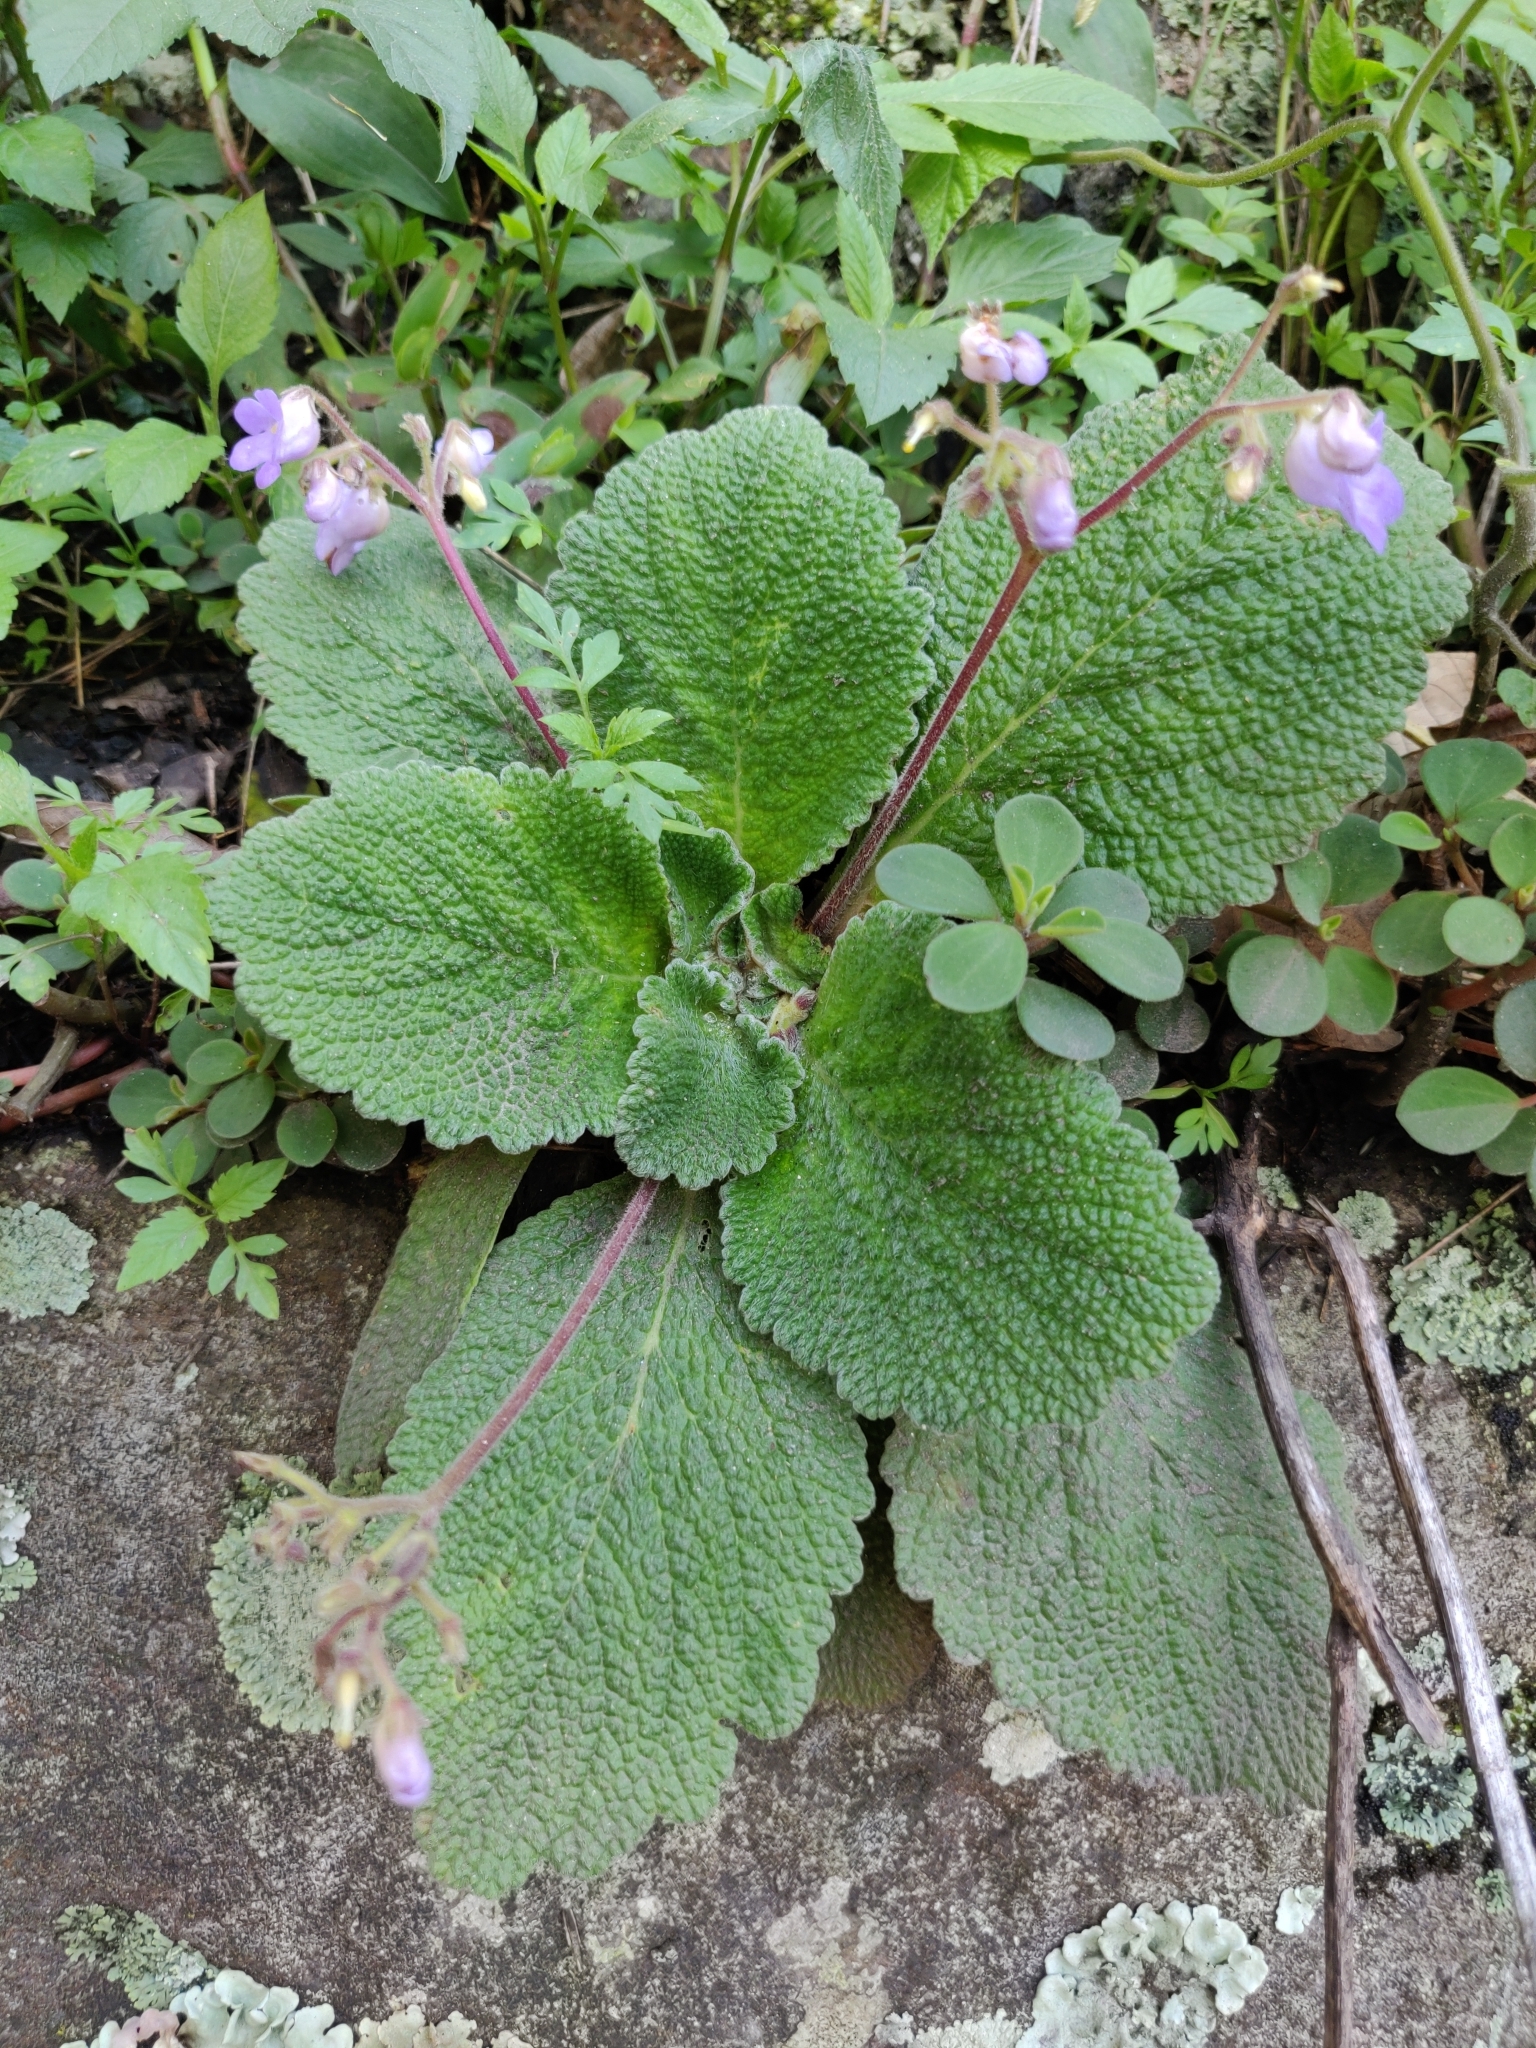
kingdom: Plantae
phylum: Tracheophyta
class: Magnoliopsida
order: Lamiales
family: Gesneriaceae
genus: Henckelia
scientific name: Henckelia incana
